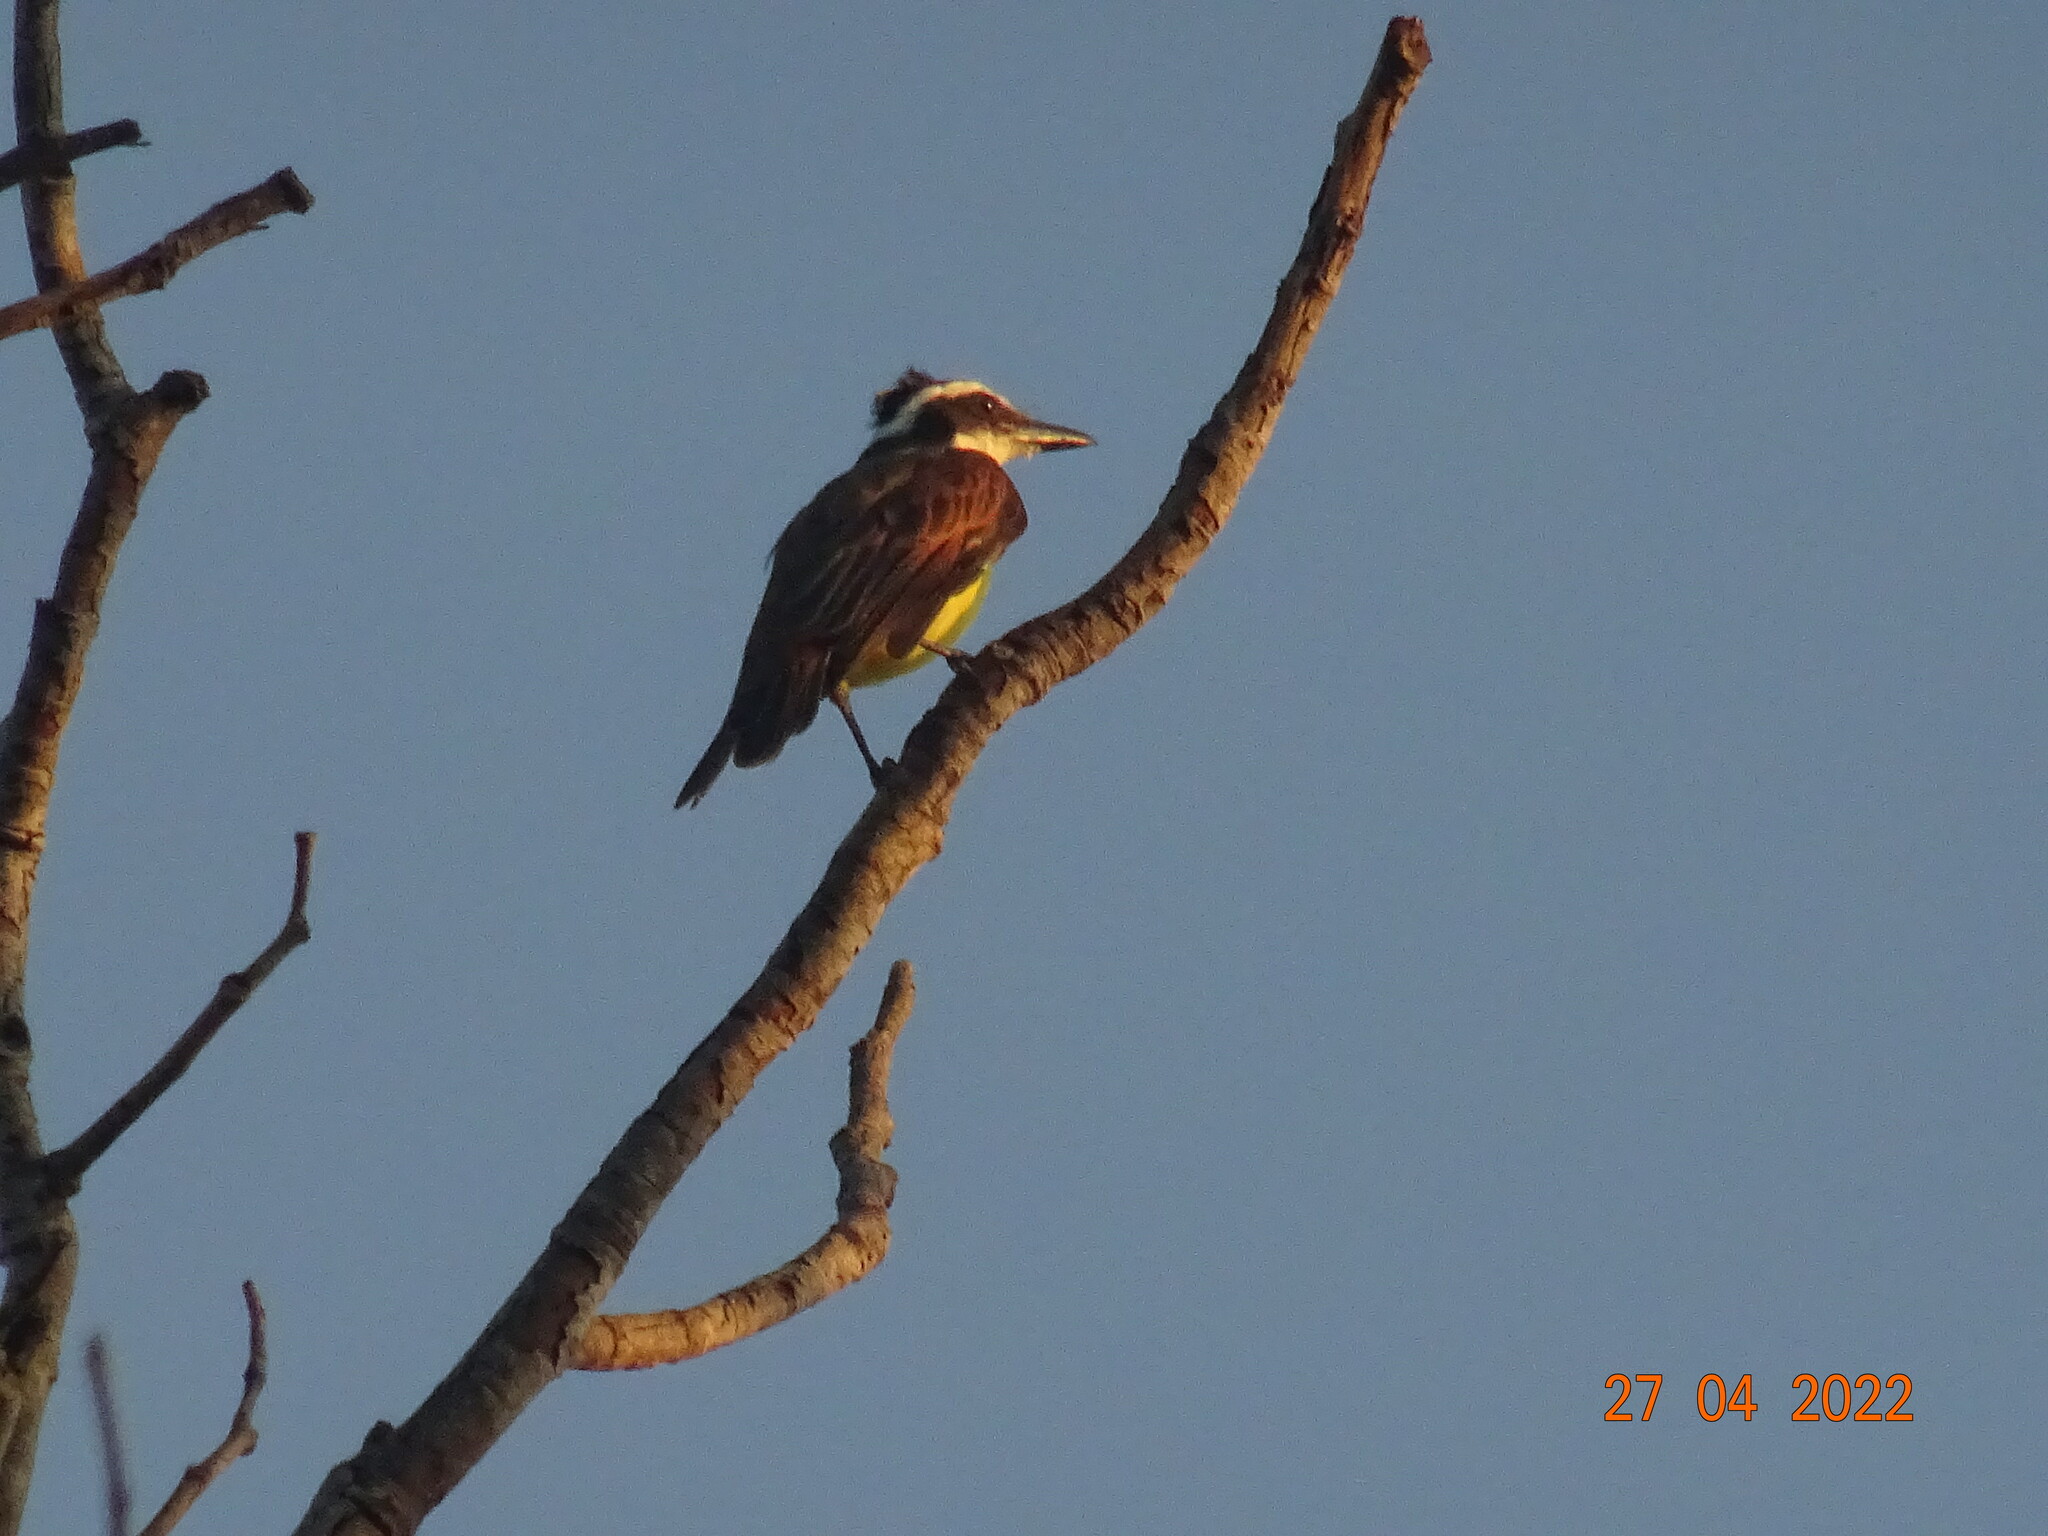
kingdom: Animalia
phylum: Chordata
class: Aves
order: Passeriformes
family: Tyrannidae
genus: Pitangus
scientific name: Pitangus sulphuratus
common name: Great kiskadee
